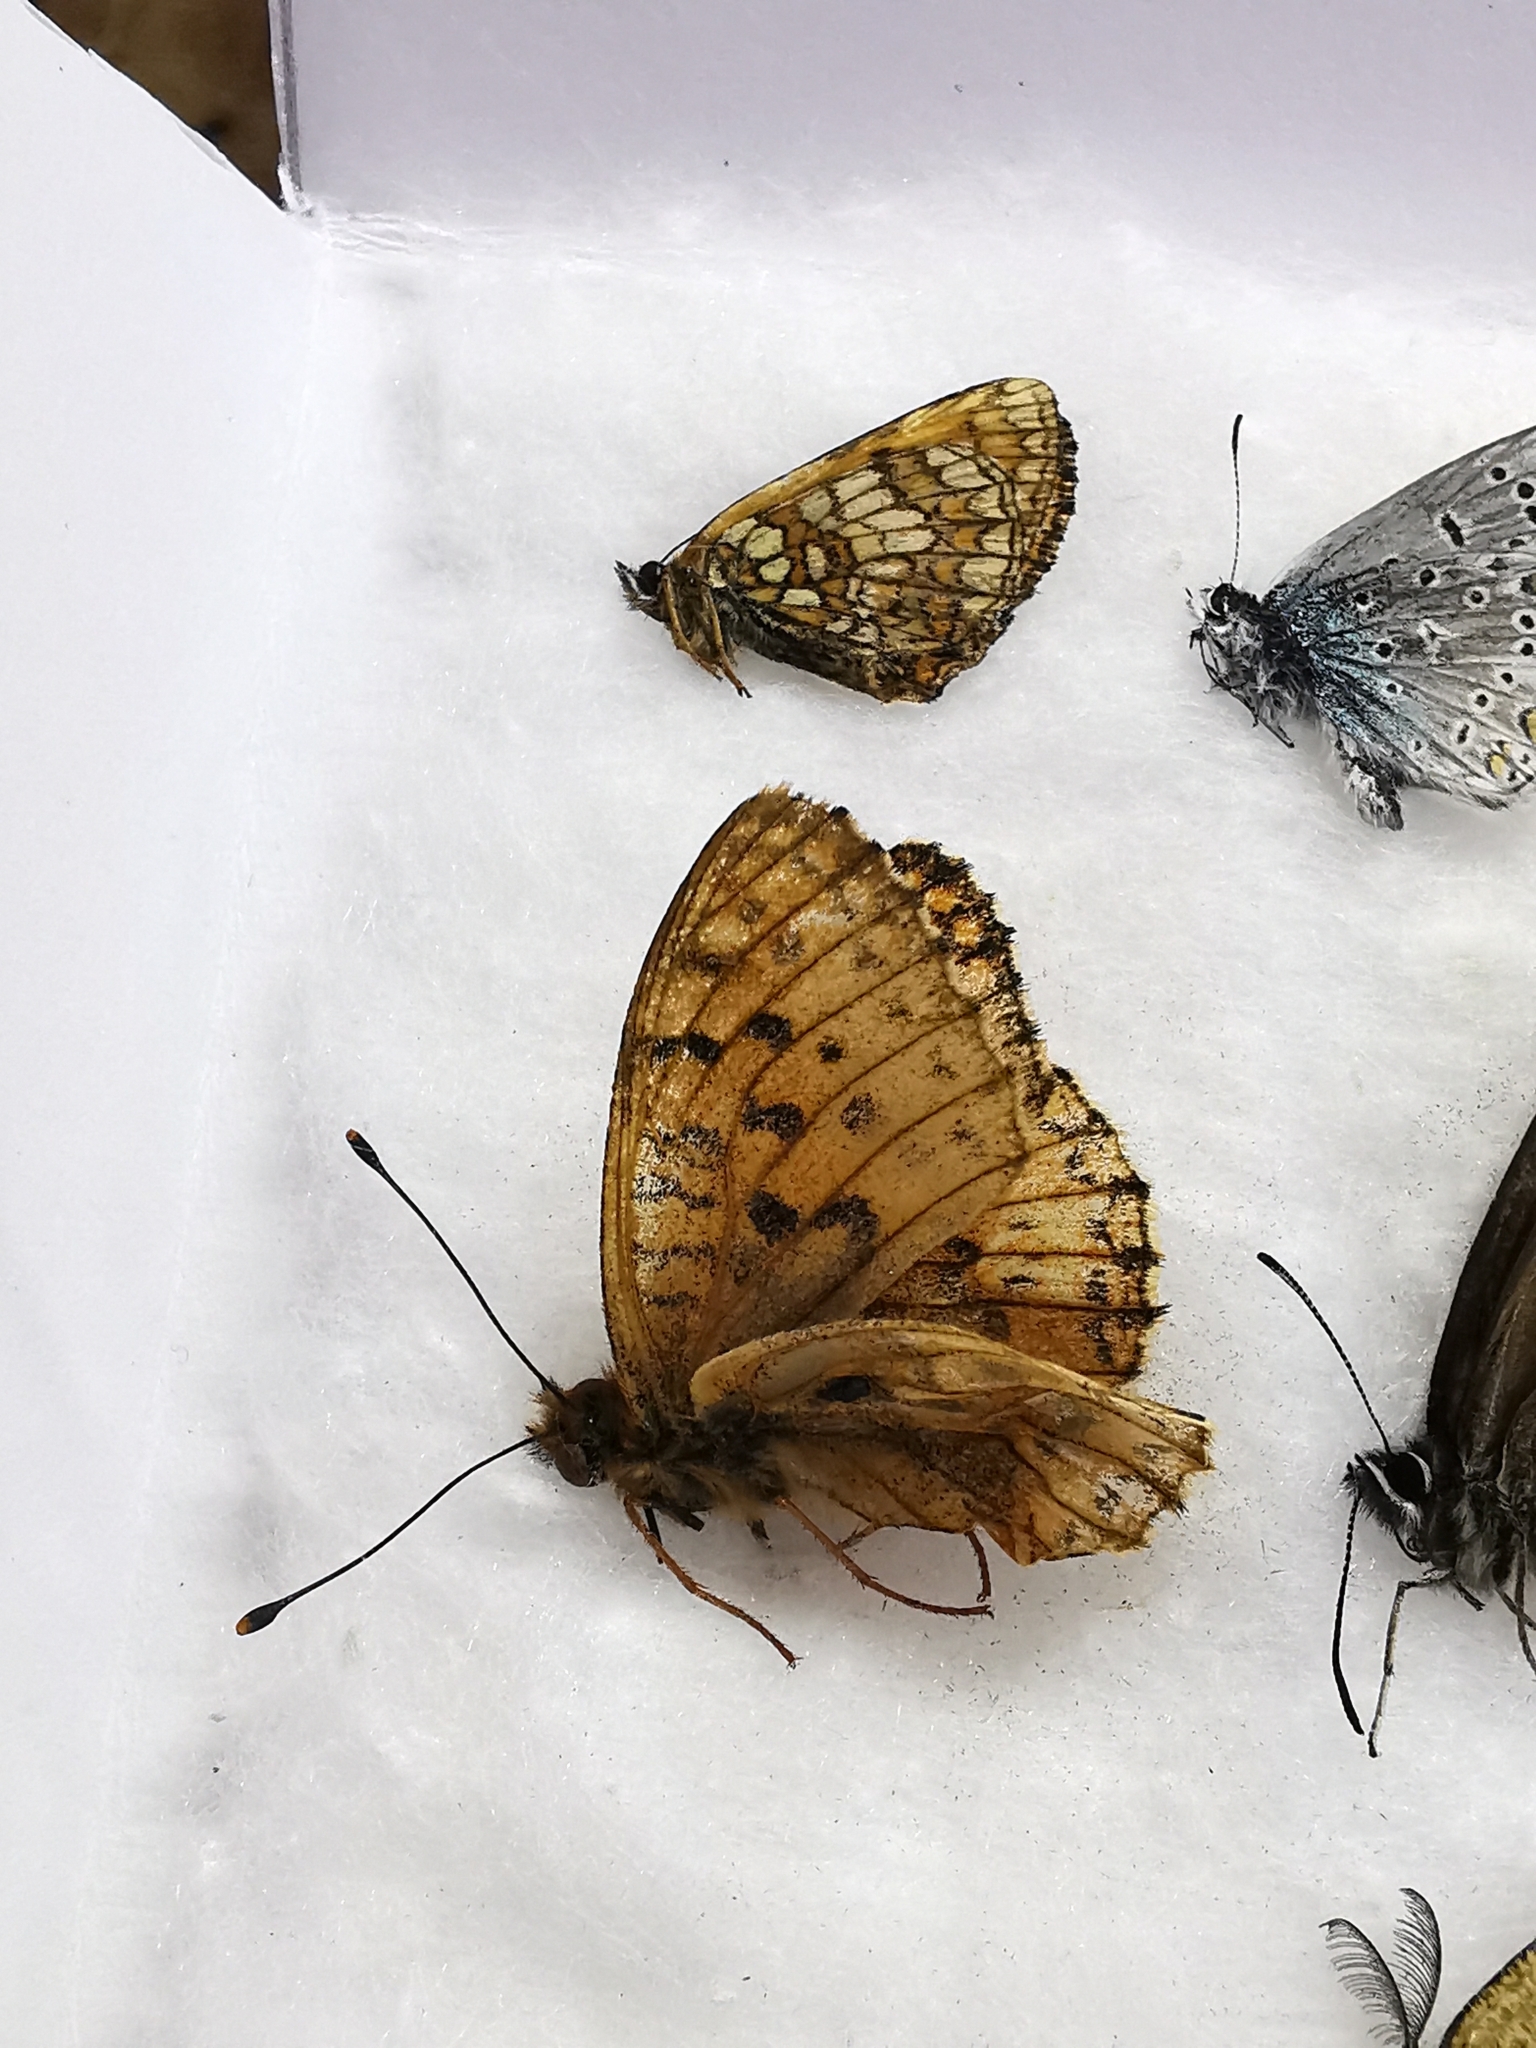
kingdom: Animalia
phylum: Arthropoda
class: Insecta
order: Lepidoptera
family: Nymphalidae
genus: Brenthis
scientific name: Brenthis ino
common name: Lesser marbled fritillary
